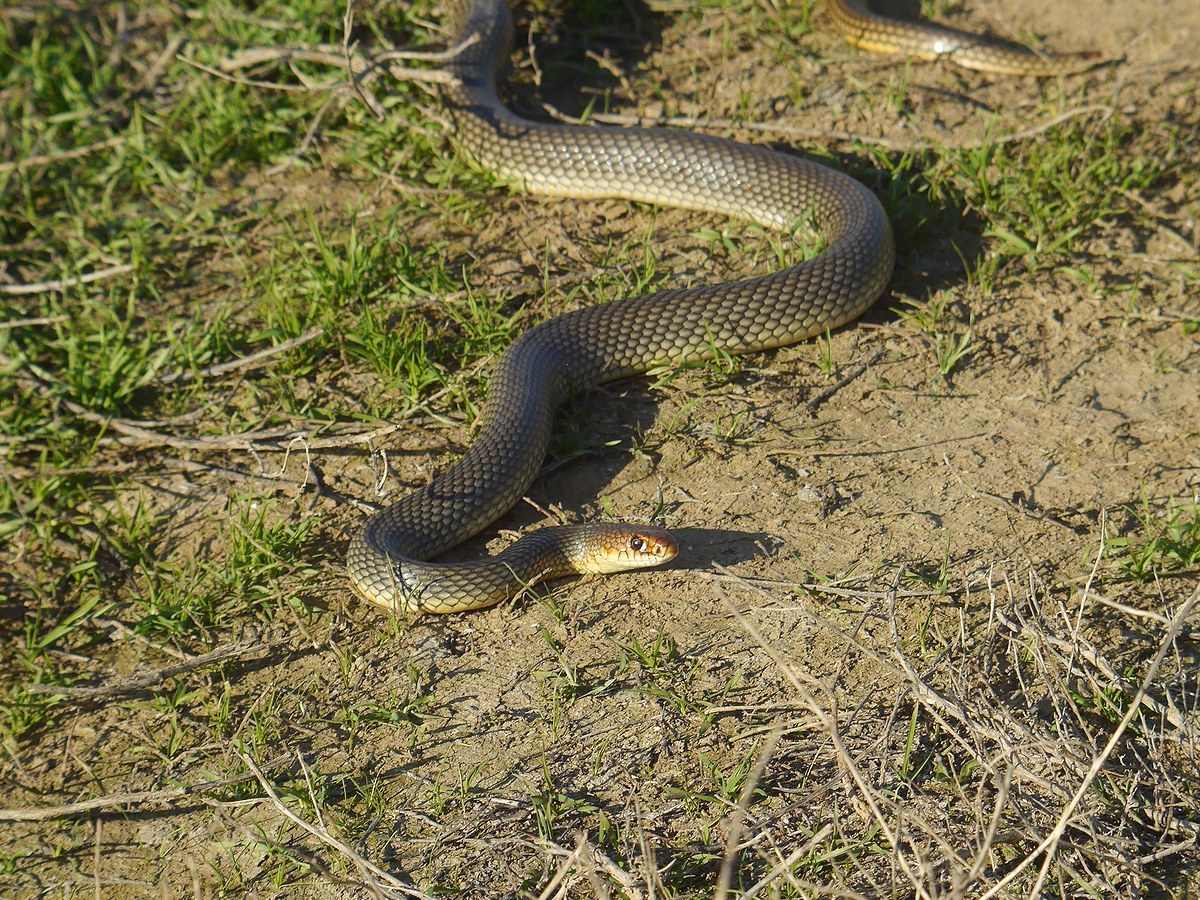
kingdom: Animalia
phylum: Chordata
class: Squamata
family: Colubridae
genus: Dolichophis
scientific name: Dolichophis caspius
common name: Large whip snake
